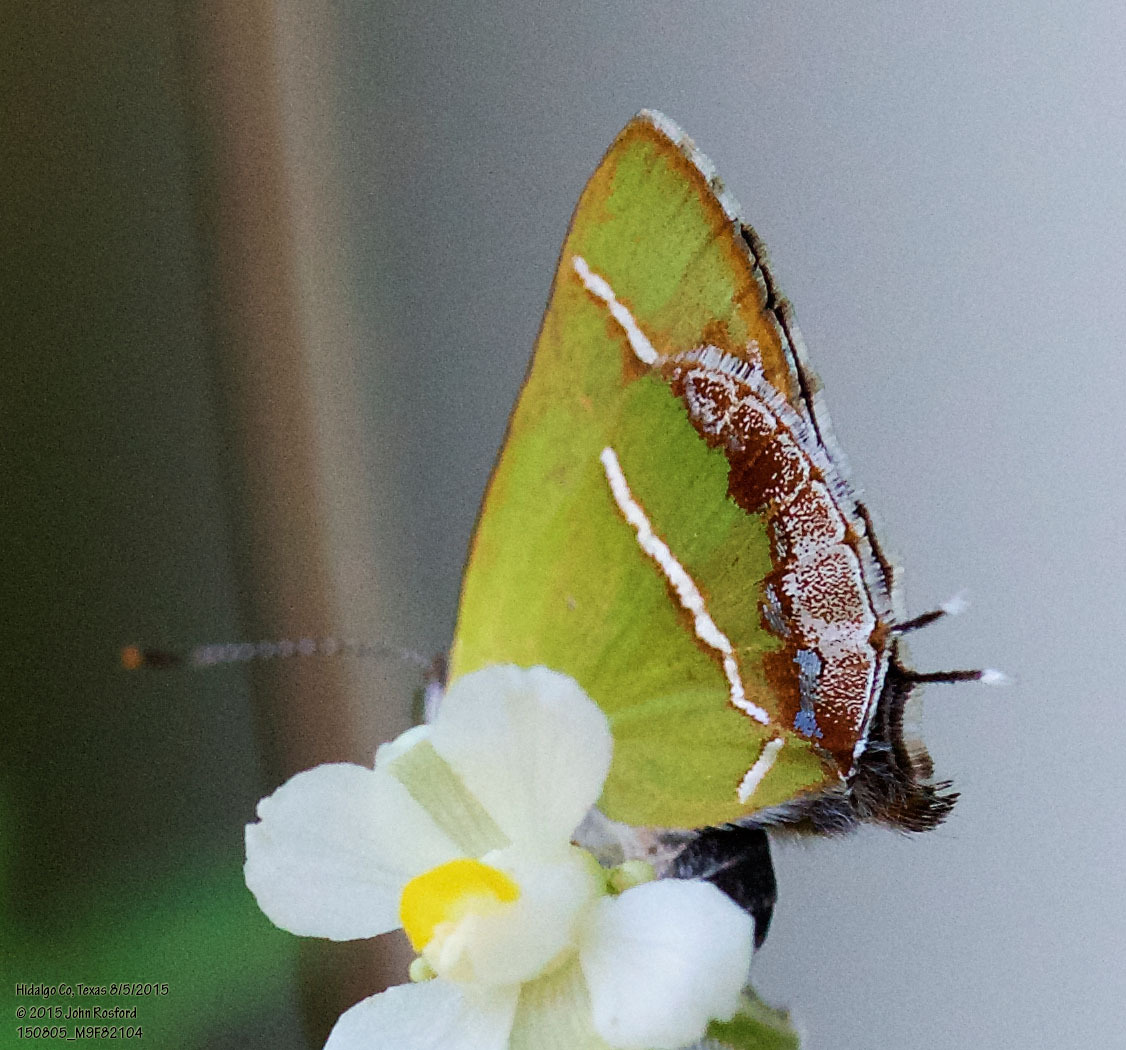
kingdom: Animalia
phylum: Arthropoda
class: Insecta
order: Lepidoptera
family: Lycaenidae
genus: Chlorostrymon
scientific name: Chlorostrymon simaethis
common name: Silver-banded hairstreak
